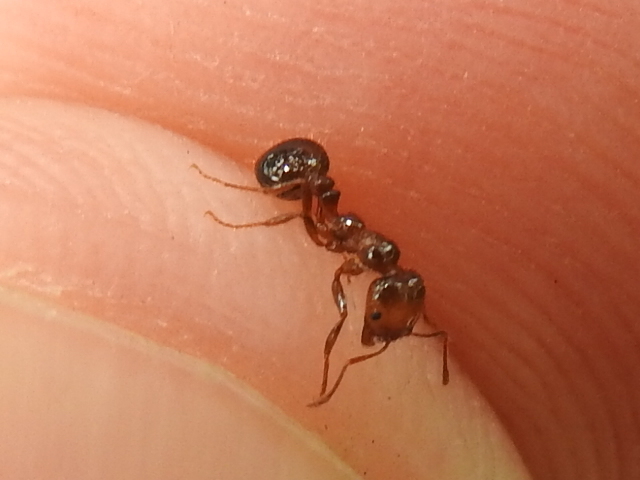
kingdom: Animalia
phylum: Arthropoda
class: Insecta
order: Hymenoptera
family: Formicidae
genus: Solenopsis
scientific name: Solenopsis invicta
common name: Red imported fire ant
